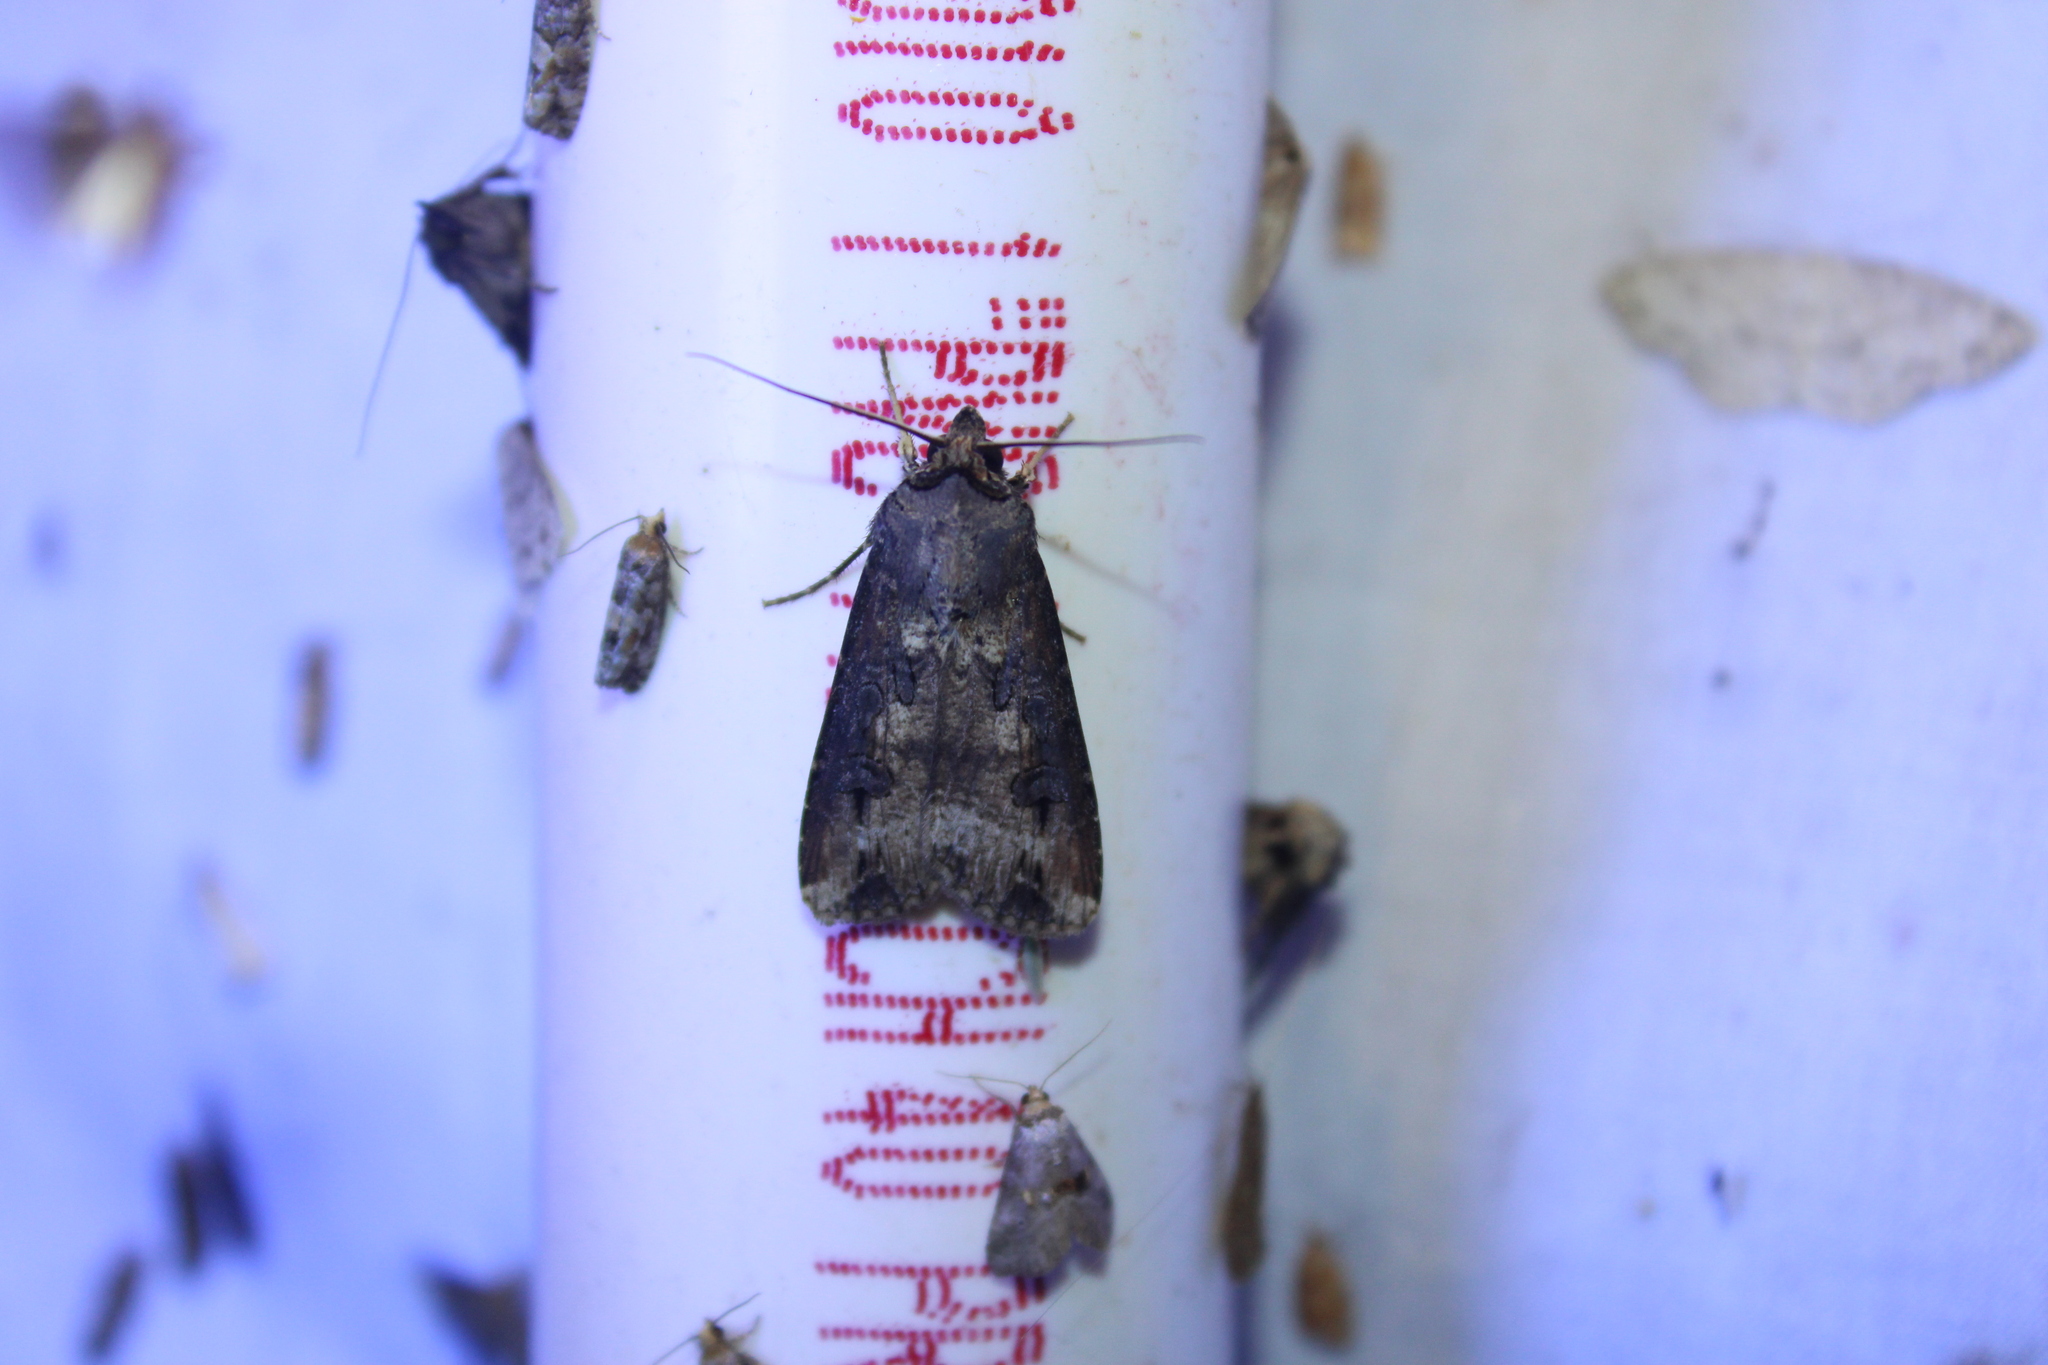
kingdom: Animalia
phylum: Arthropoda
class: Insecta
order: Lepidoptera
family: Noctuidae
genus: Agrotis
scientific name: Agrotis ipsilon
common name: Dark sword-grass
